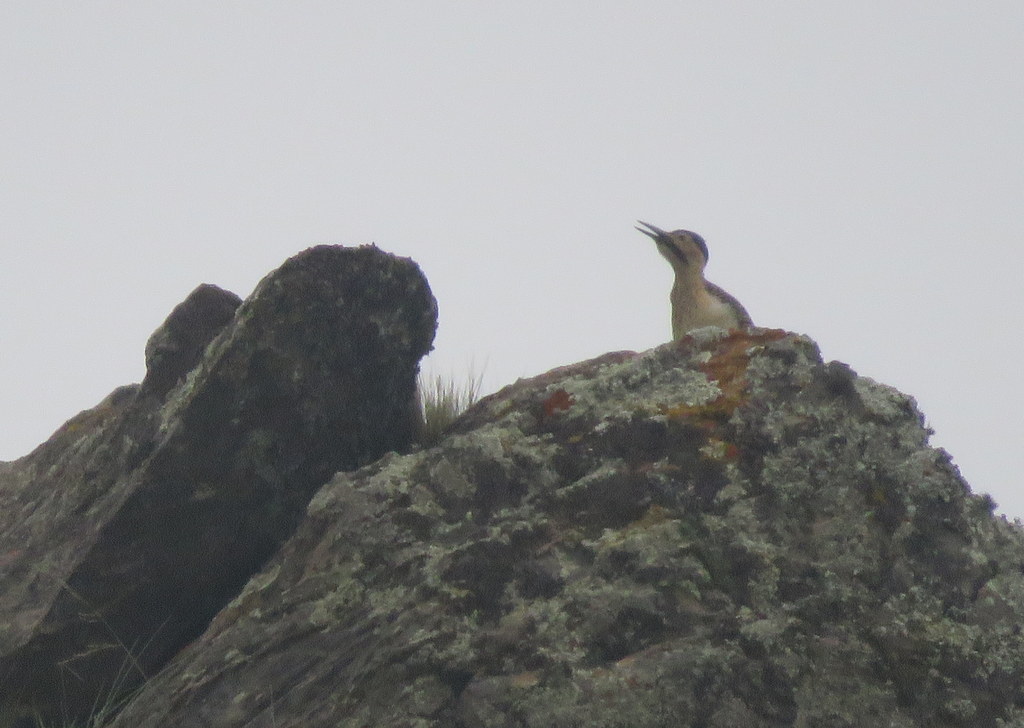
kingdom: Animalia
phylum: Chordata
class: Aves
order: Piciformes
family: Picidae
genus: Colaptes
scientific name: Colaptes rupicola
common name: Andean flicker
